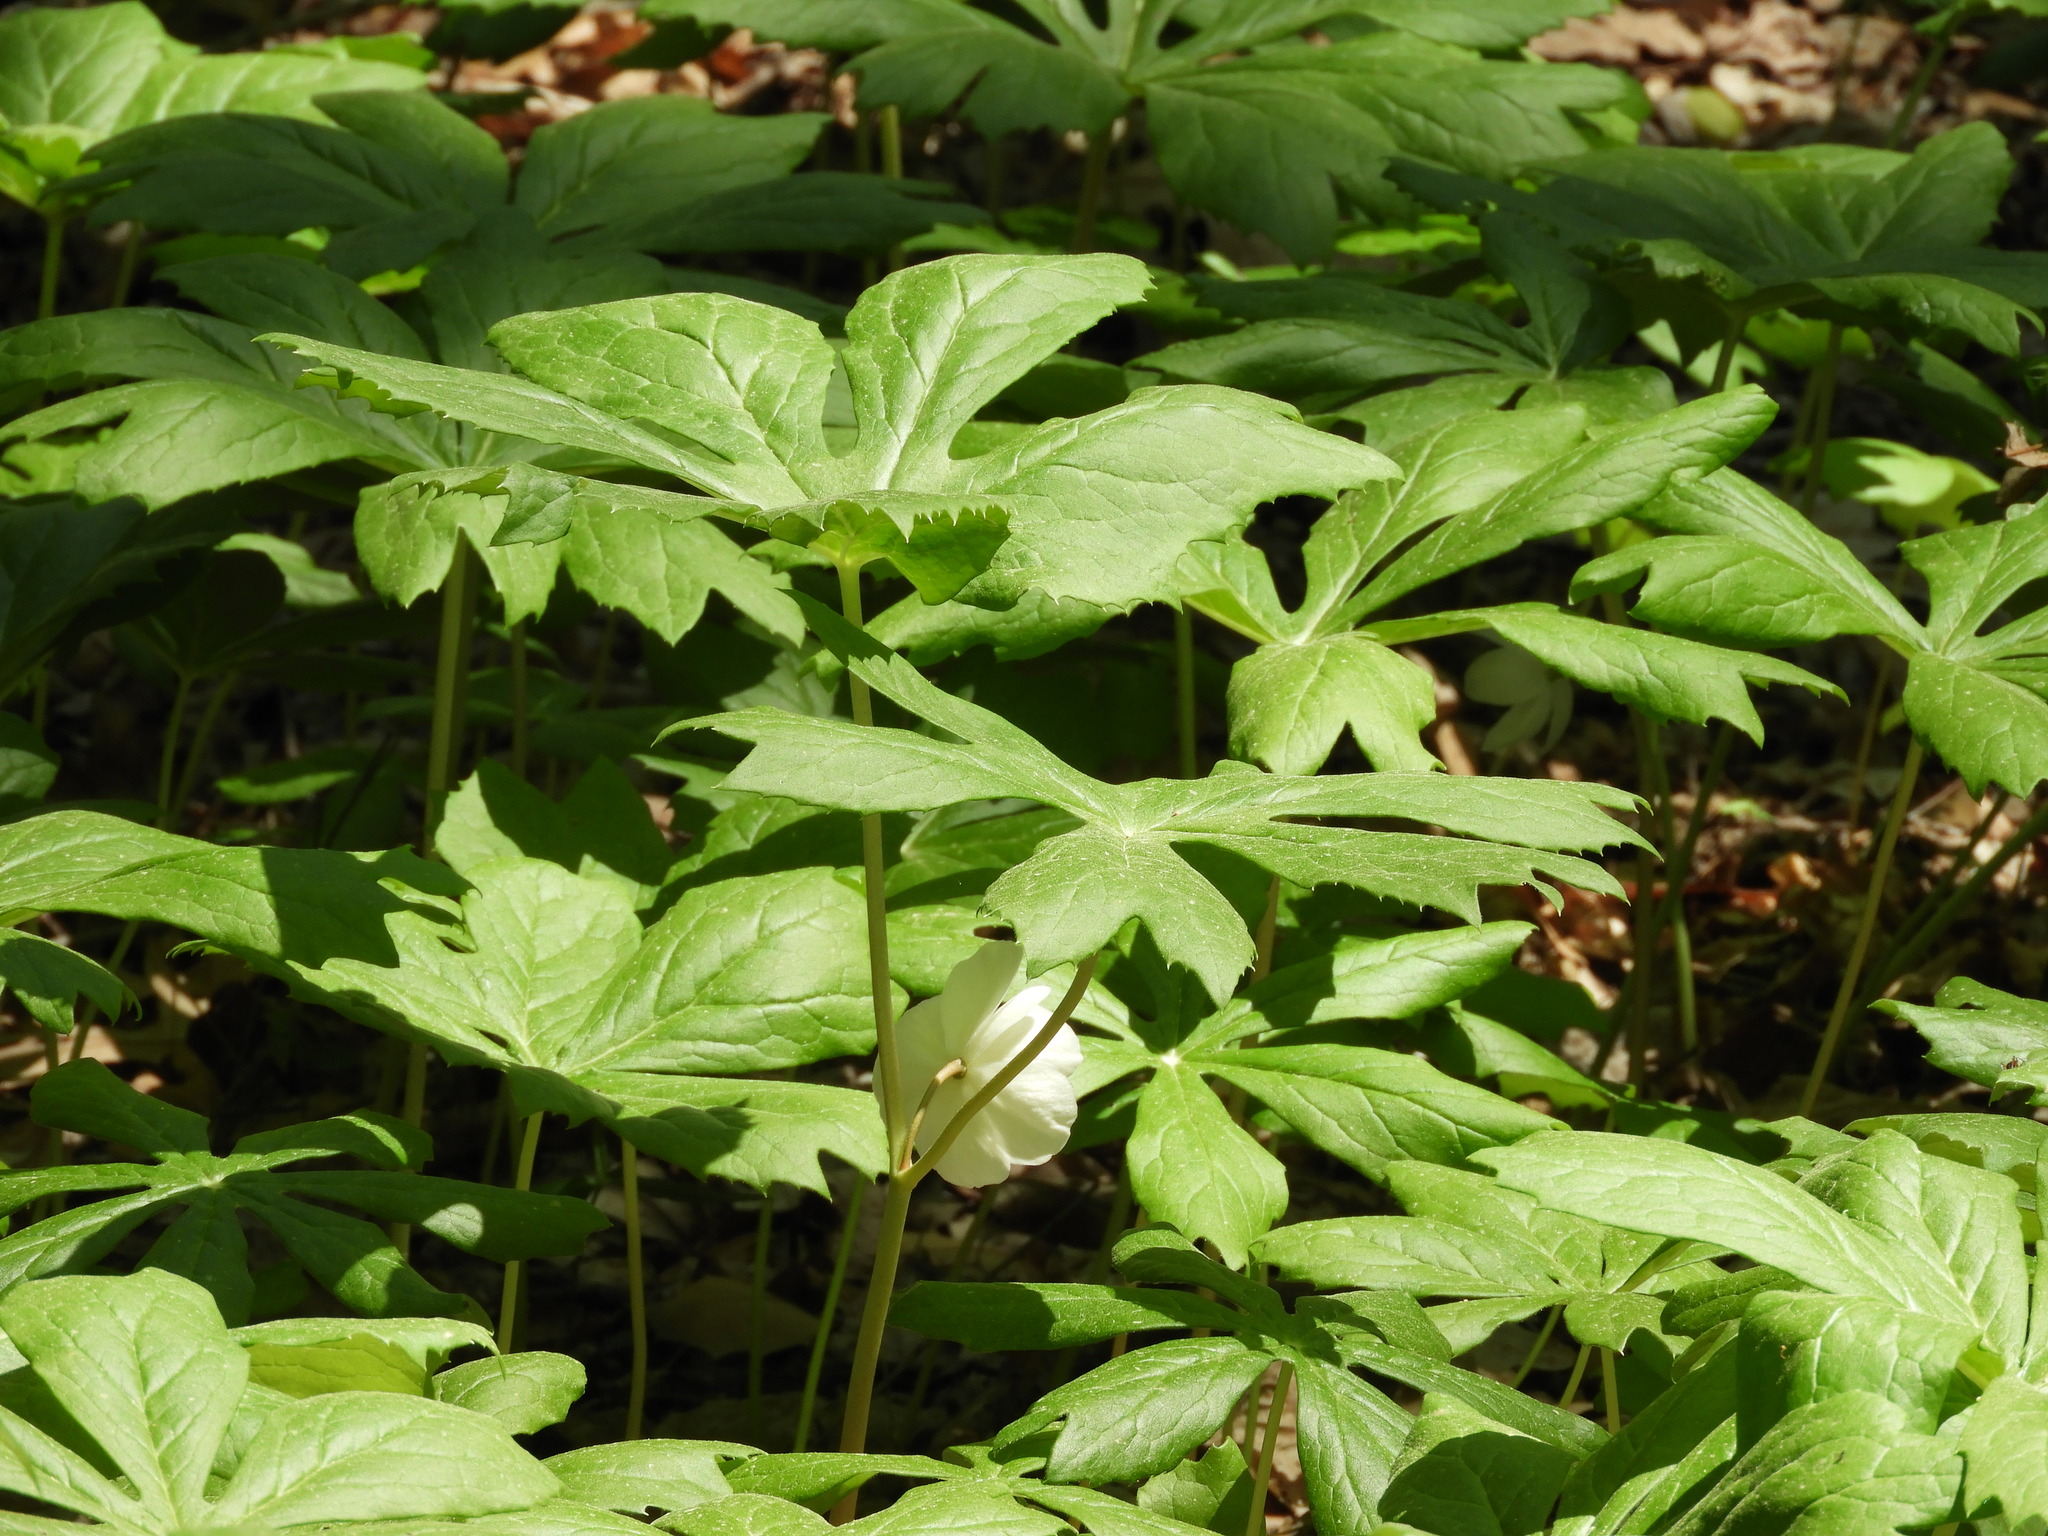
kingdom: Plantae
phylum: Tracheophyta
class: Magnoliopsida
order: Ranunculales
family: Berberidaceae
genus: Podophyllum
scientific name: Podophyllum peltatum
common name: Wild mandrake
